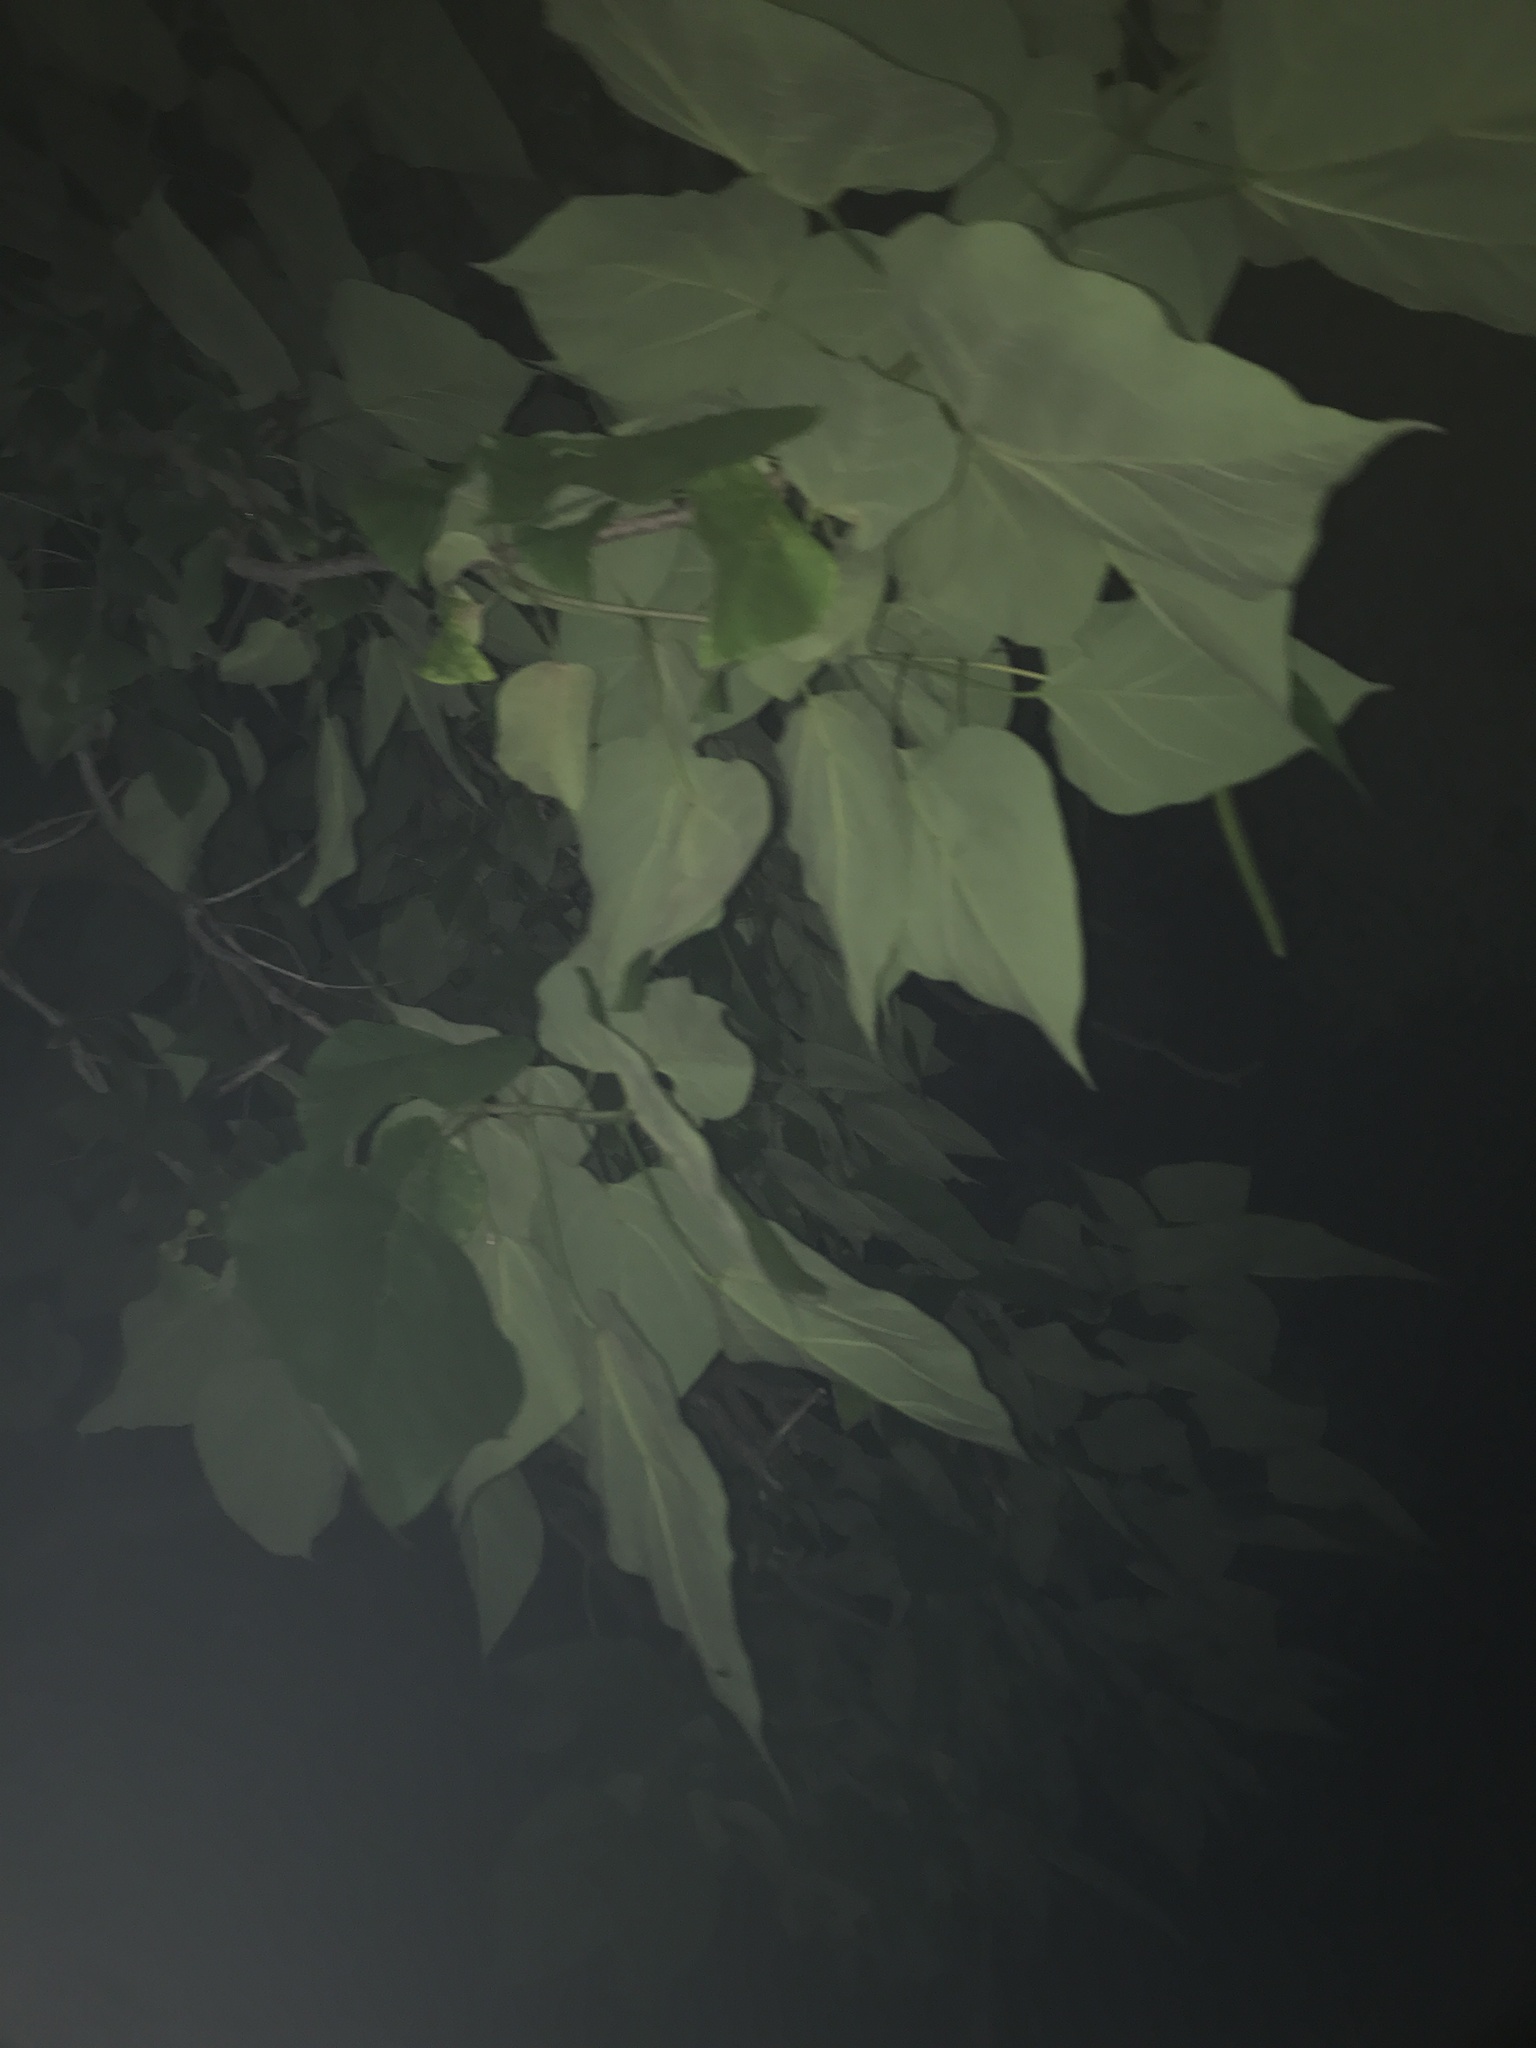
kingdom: Plantae
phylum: Tracheophyta
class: Magnoliopsida
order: Lamiales
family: Bignoniaceae
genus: Catalpa
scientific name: Catalpa speciosa
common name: Northern catalpa
